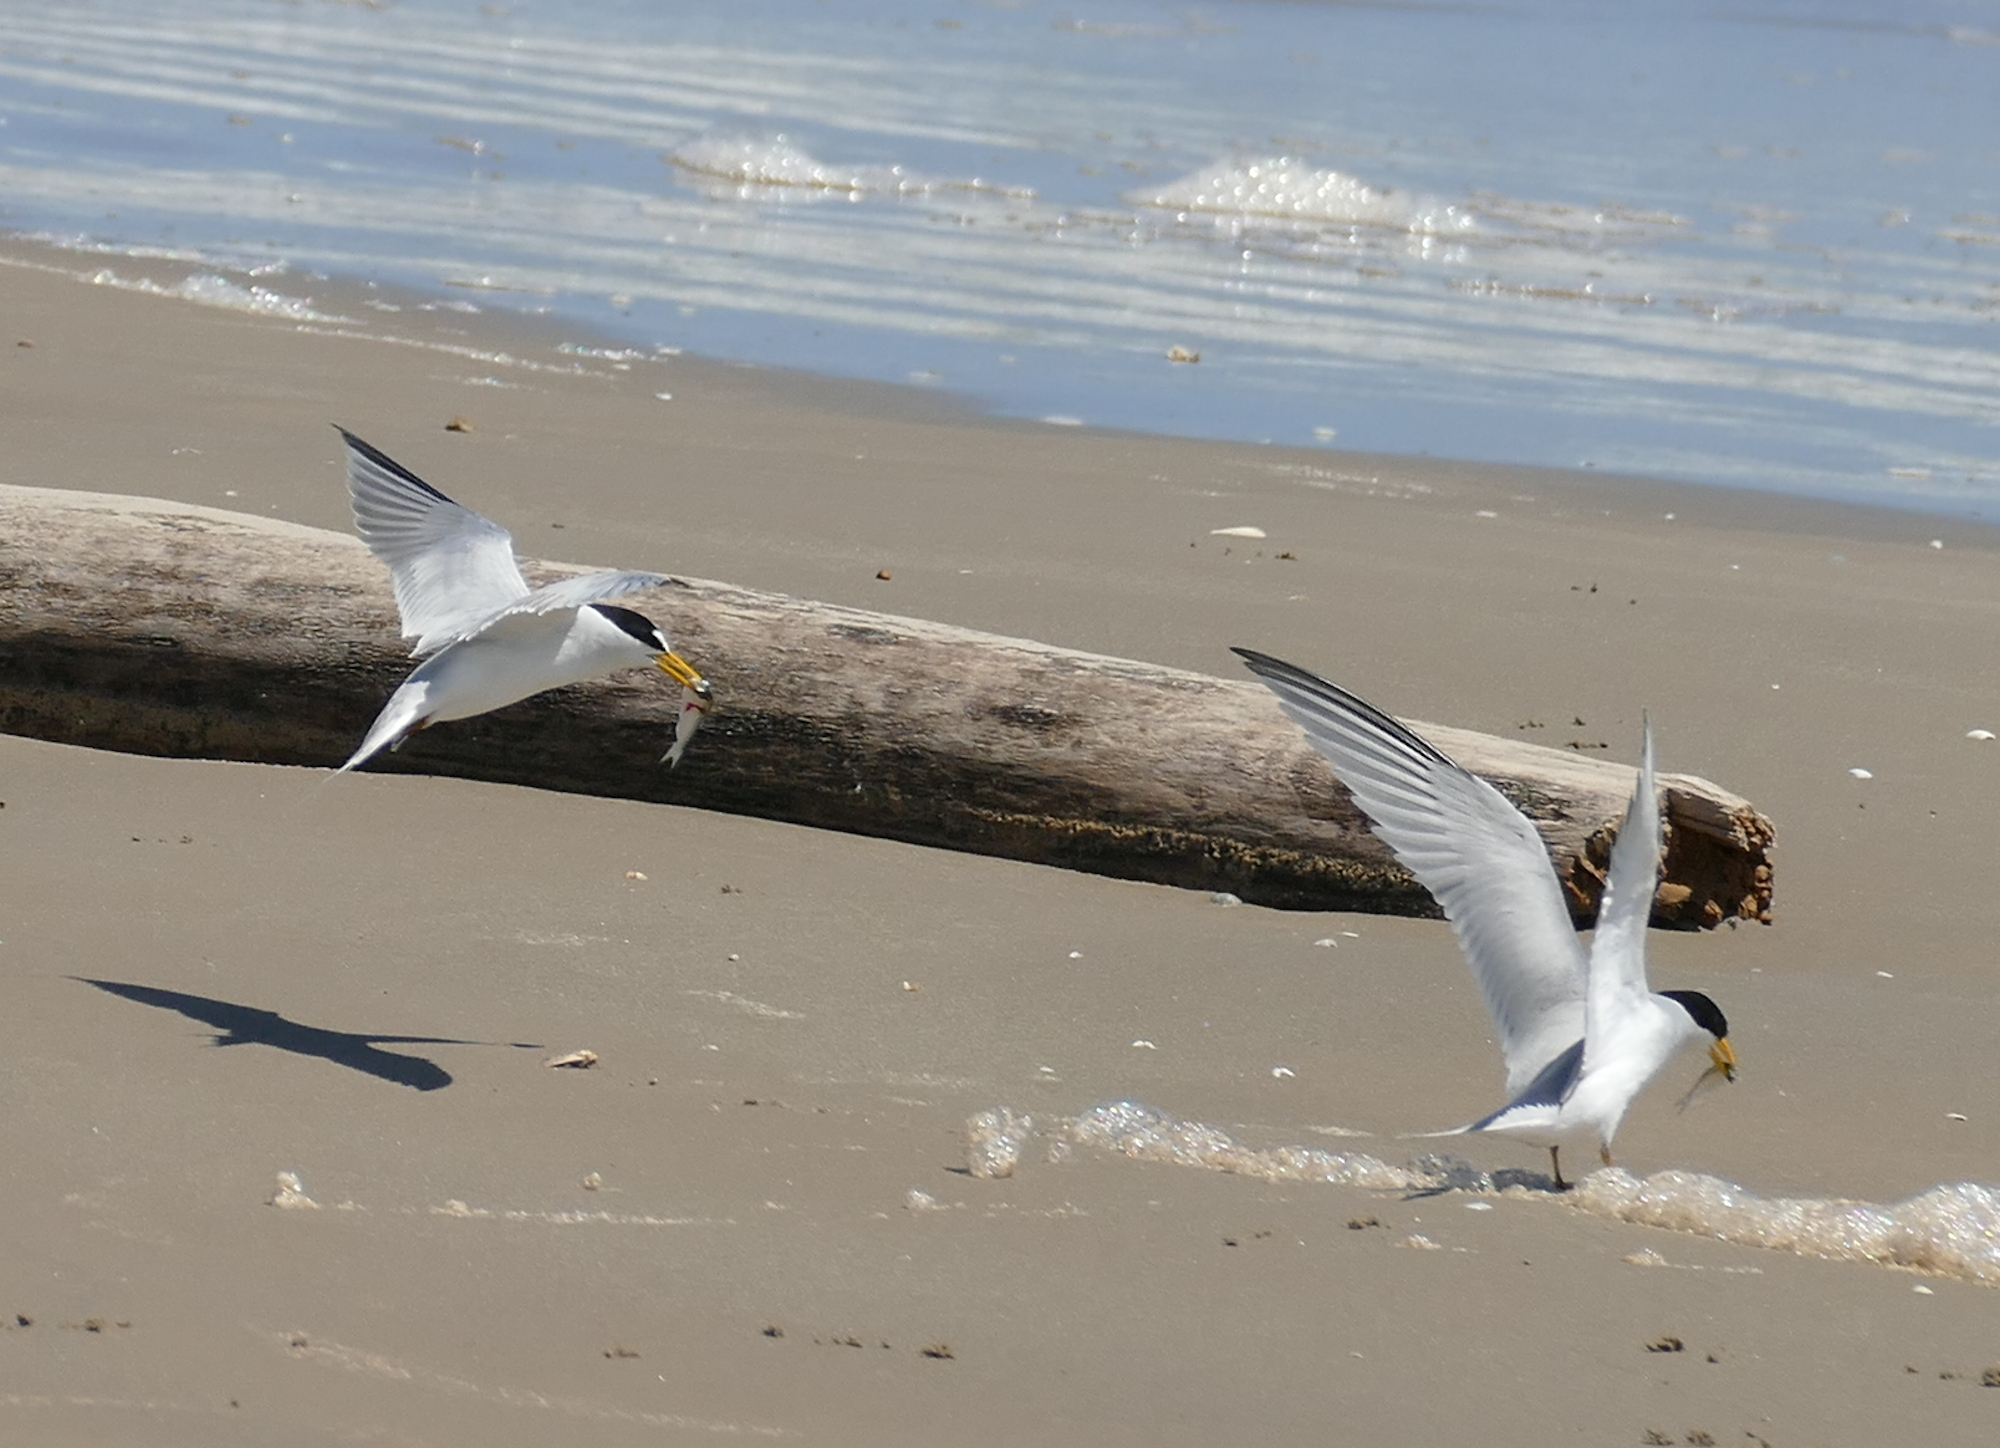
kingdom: Animalia
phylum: Chordata
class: Aves
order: Charadriiformes
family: Laridae
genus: Sternula
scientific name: Sternula antillarum
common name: Least tern
